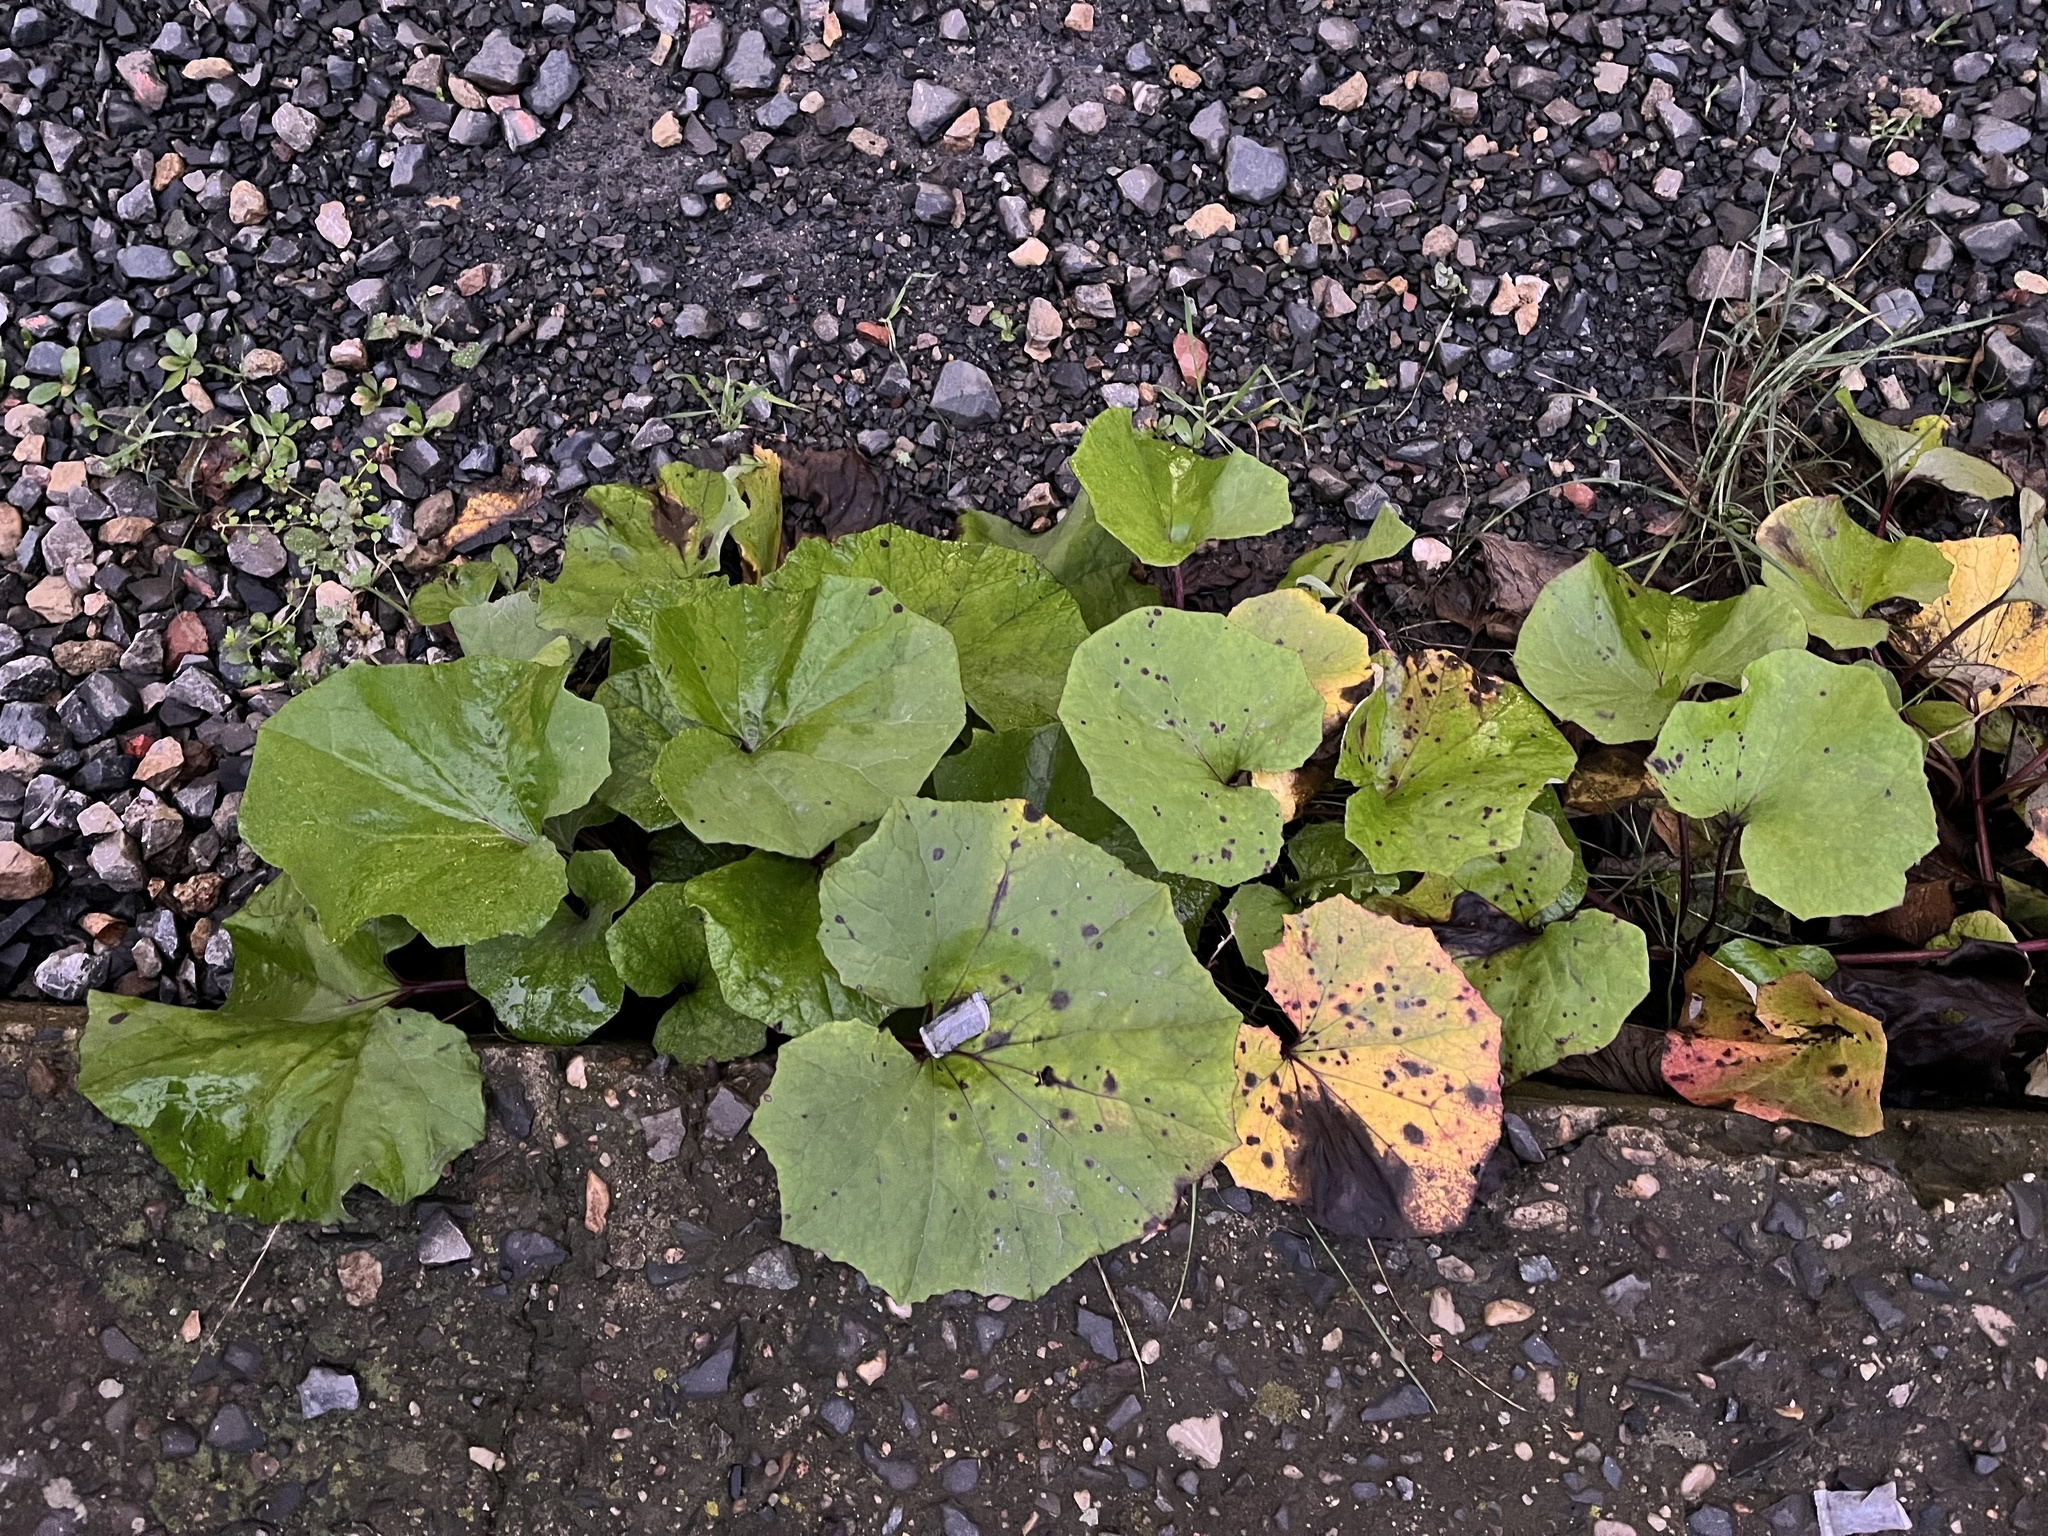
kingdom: Plantae
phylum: Tracheophyta
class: Magnoliopsida
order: Asterales
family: Asteraceae
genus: Tussilago
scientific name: Tussilago farfara
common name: Coltsfoot
